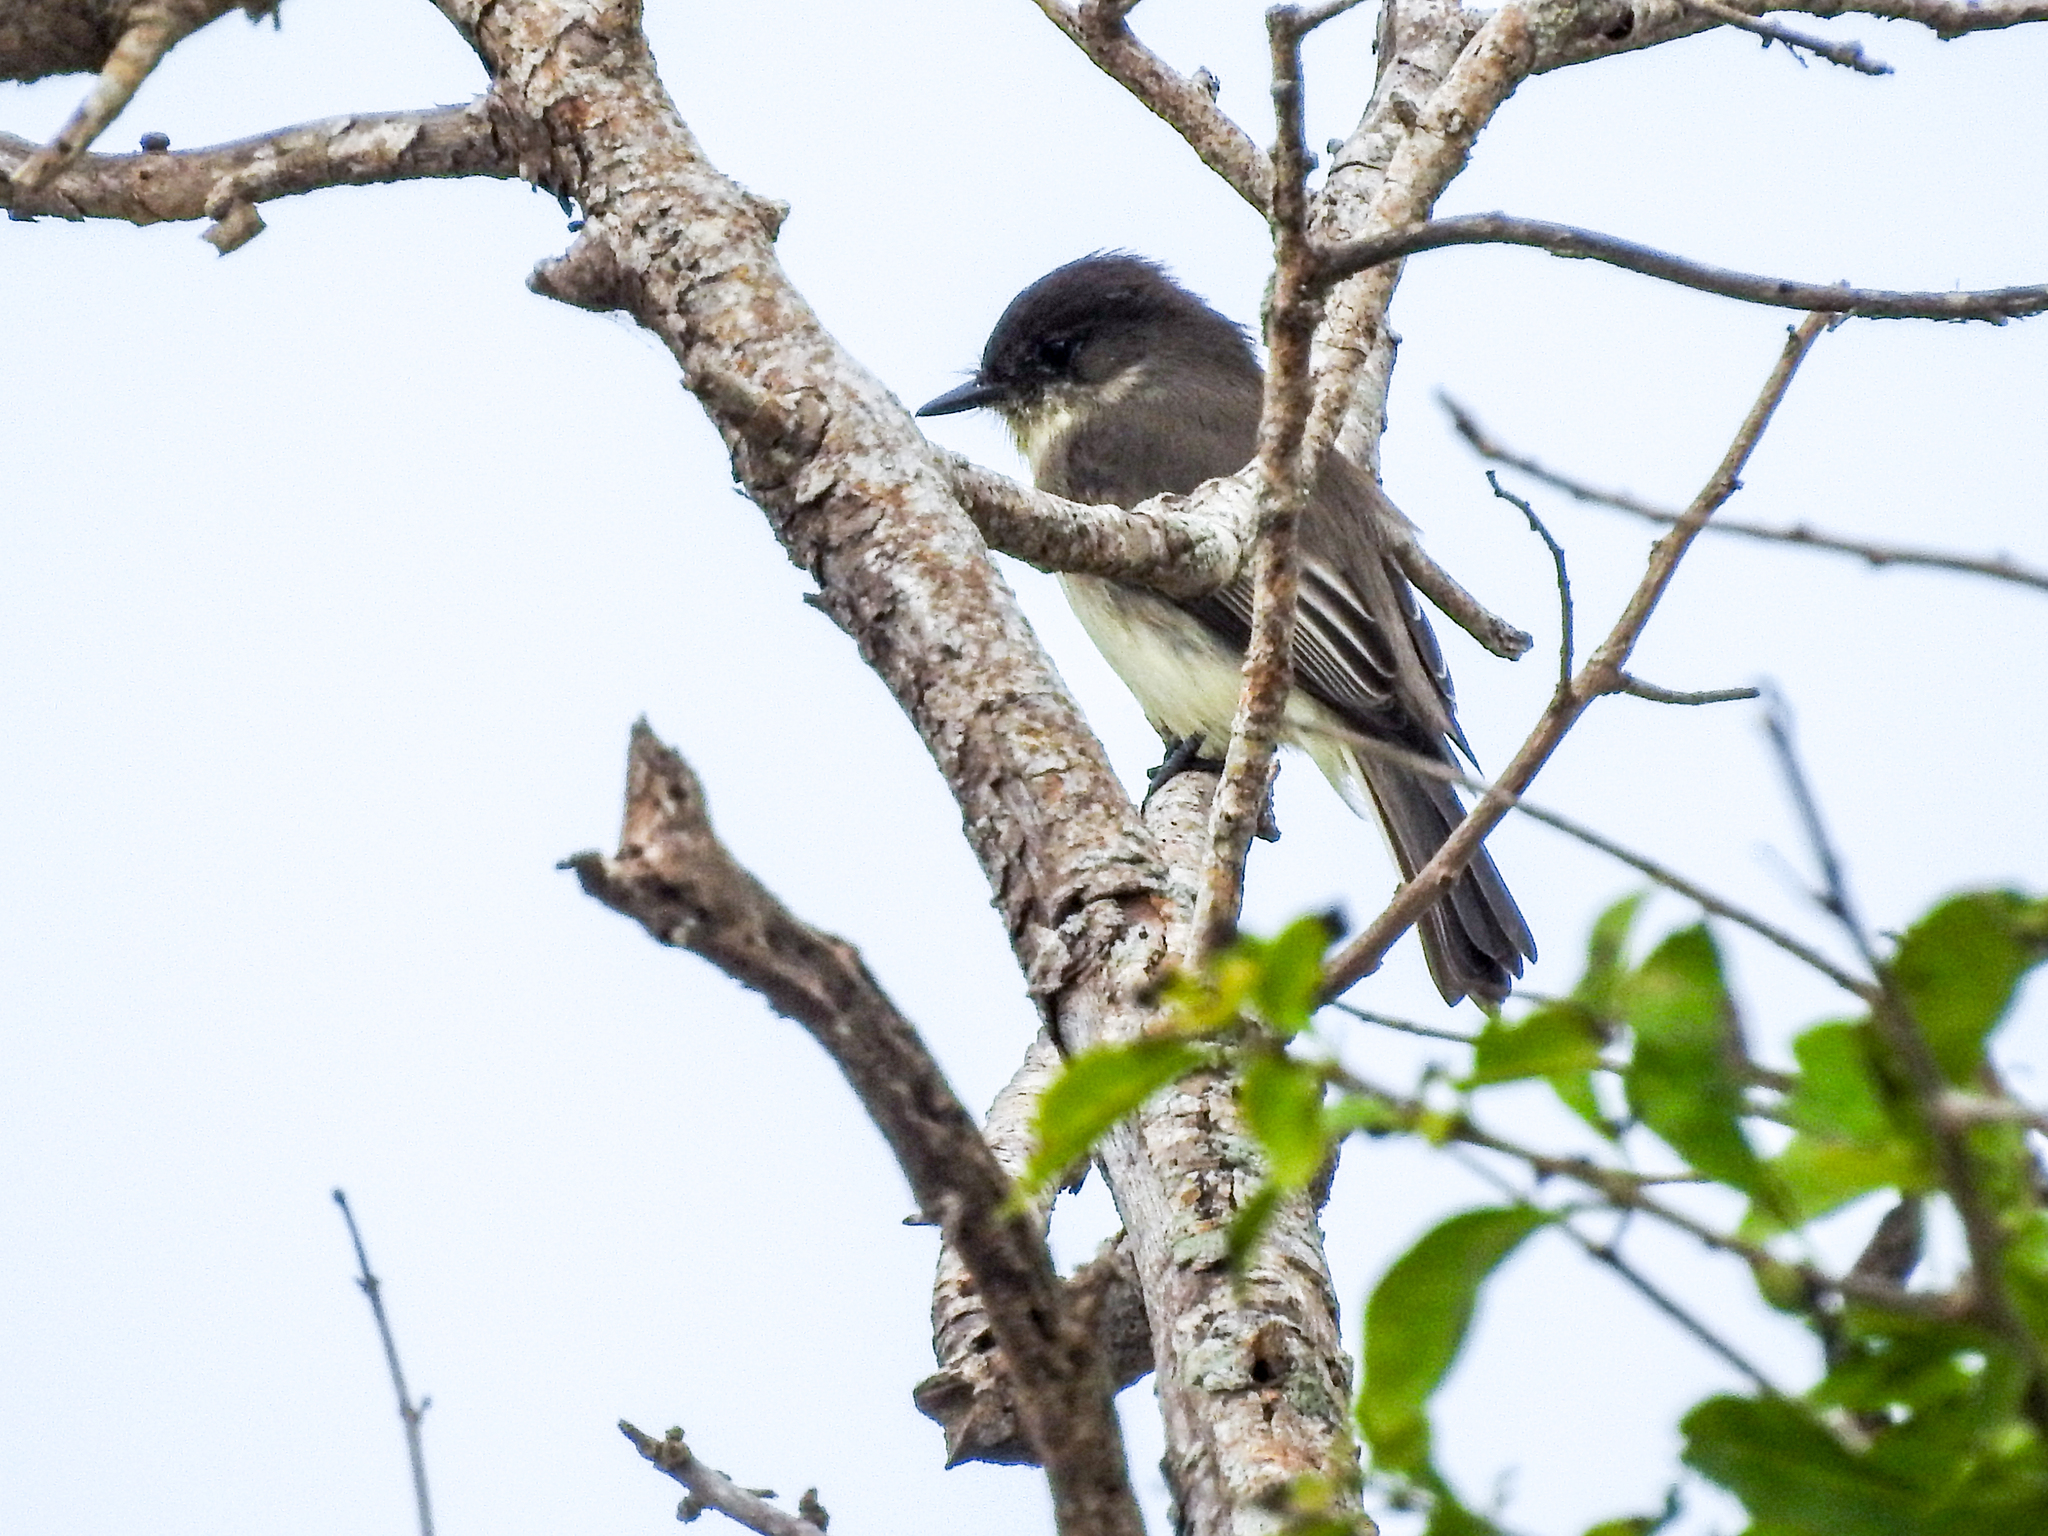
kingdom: Animalia
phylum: Chordata
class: Aves
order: Passeriformes
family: Tyrannidae
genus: Sayornis
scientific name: Sayornis phoebe
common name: Eastern phoebe
